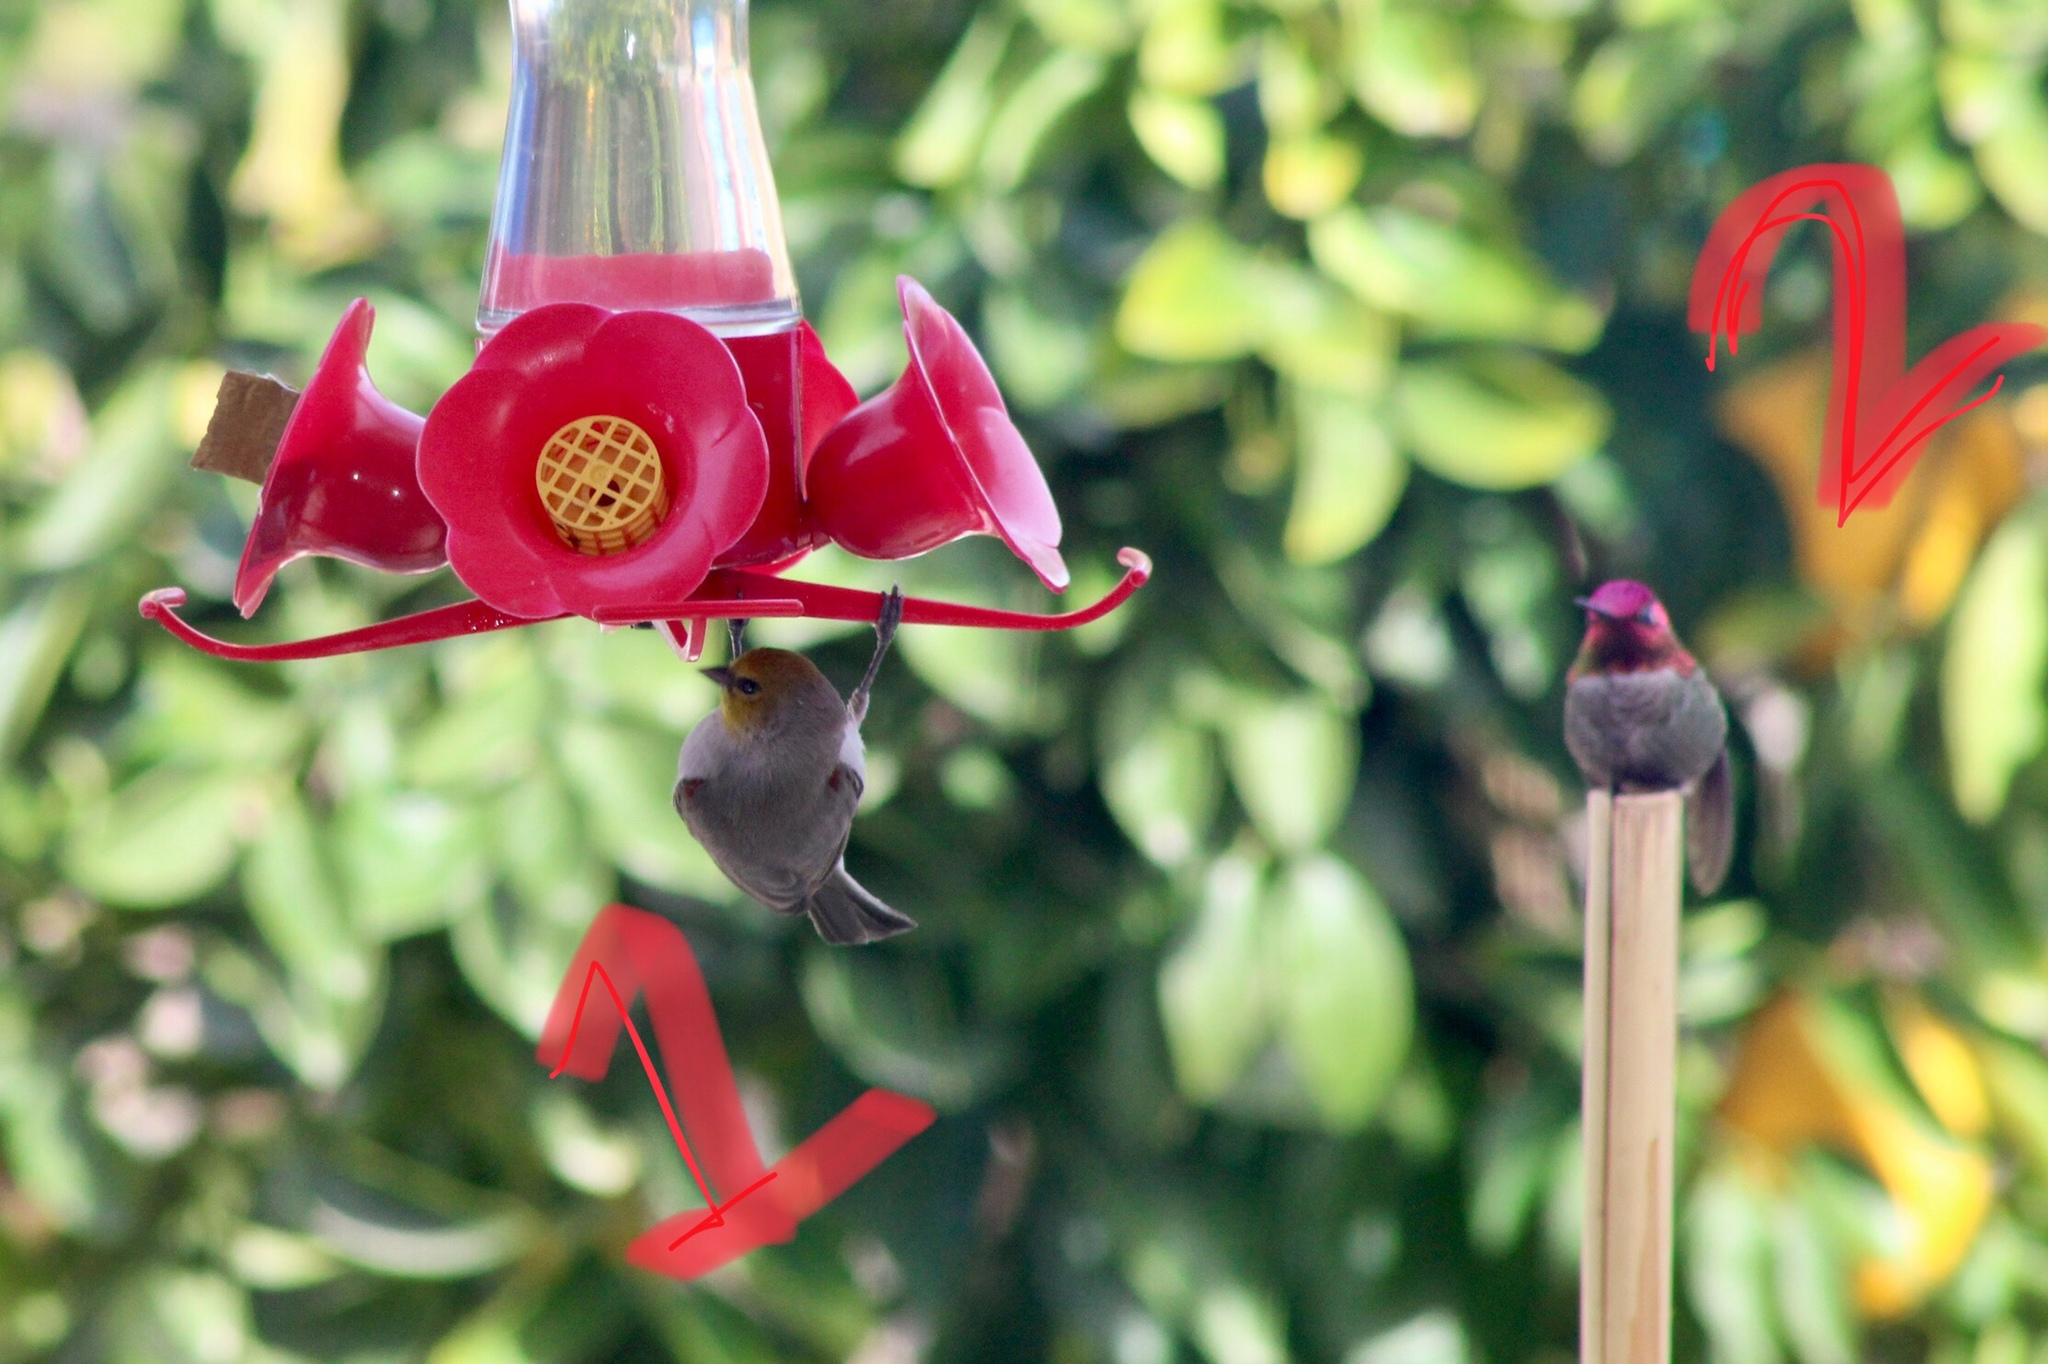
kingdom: Animalia
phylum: Chordata
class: Aves
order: Apodiformes
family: Trochilidae
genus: Calypte
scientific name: Calypte anna
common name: Anna's hummingbird
